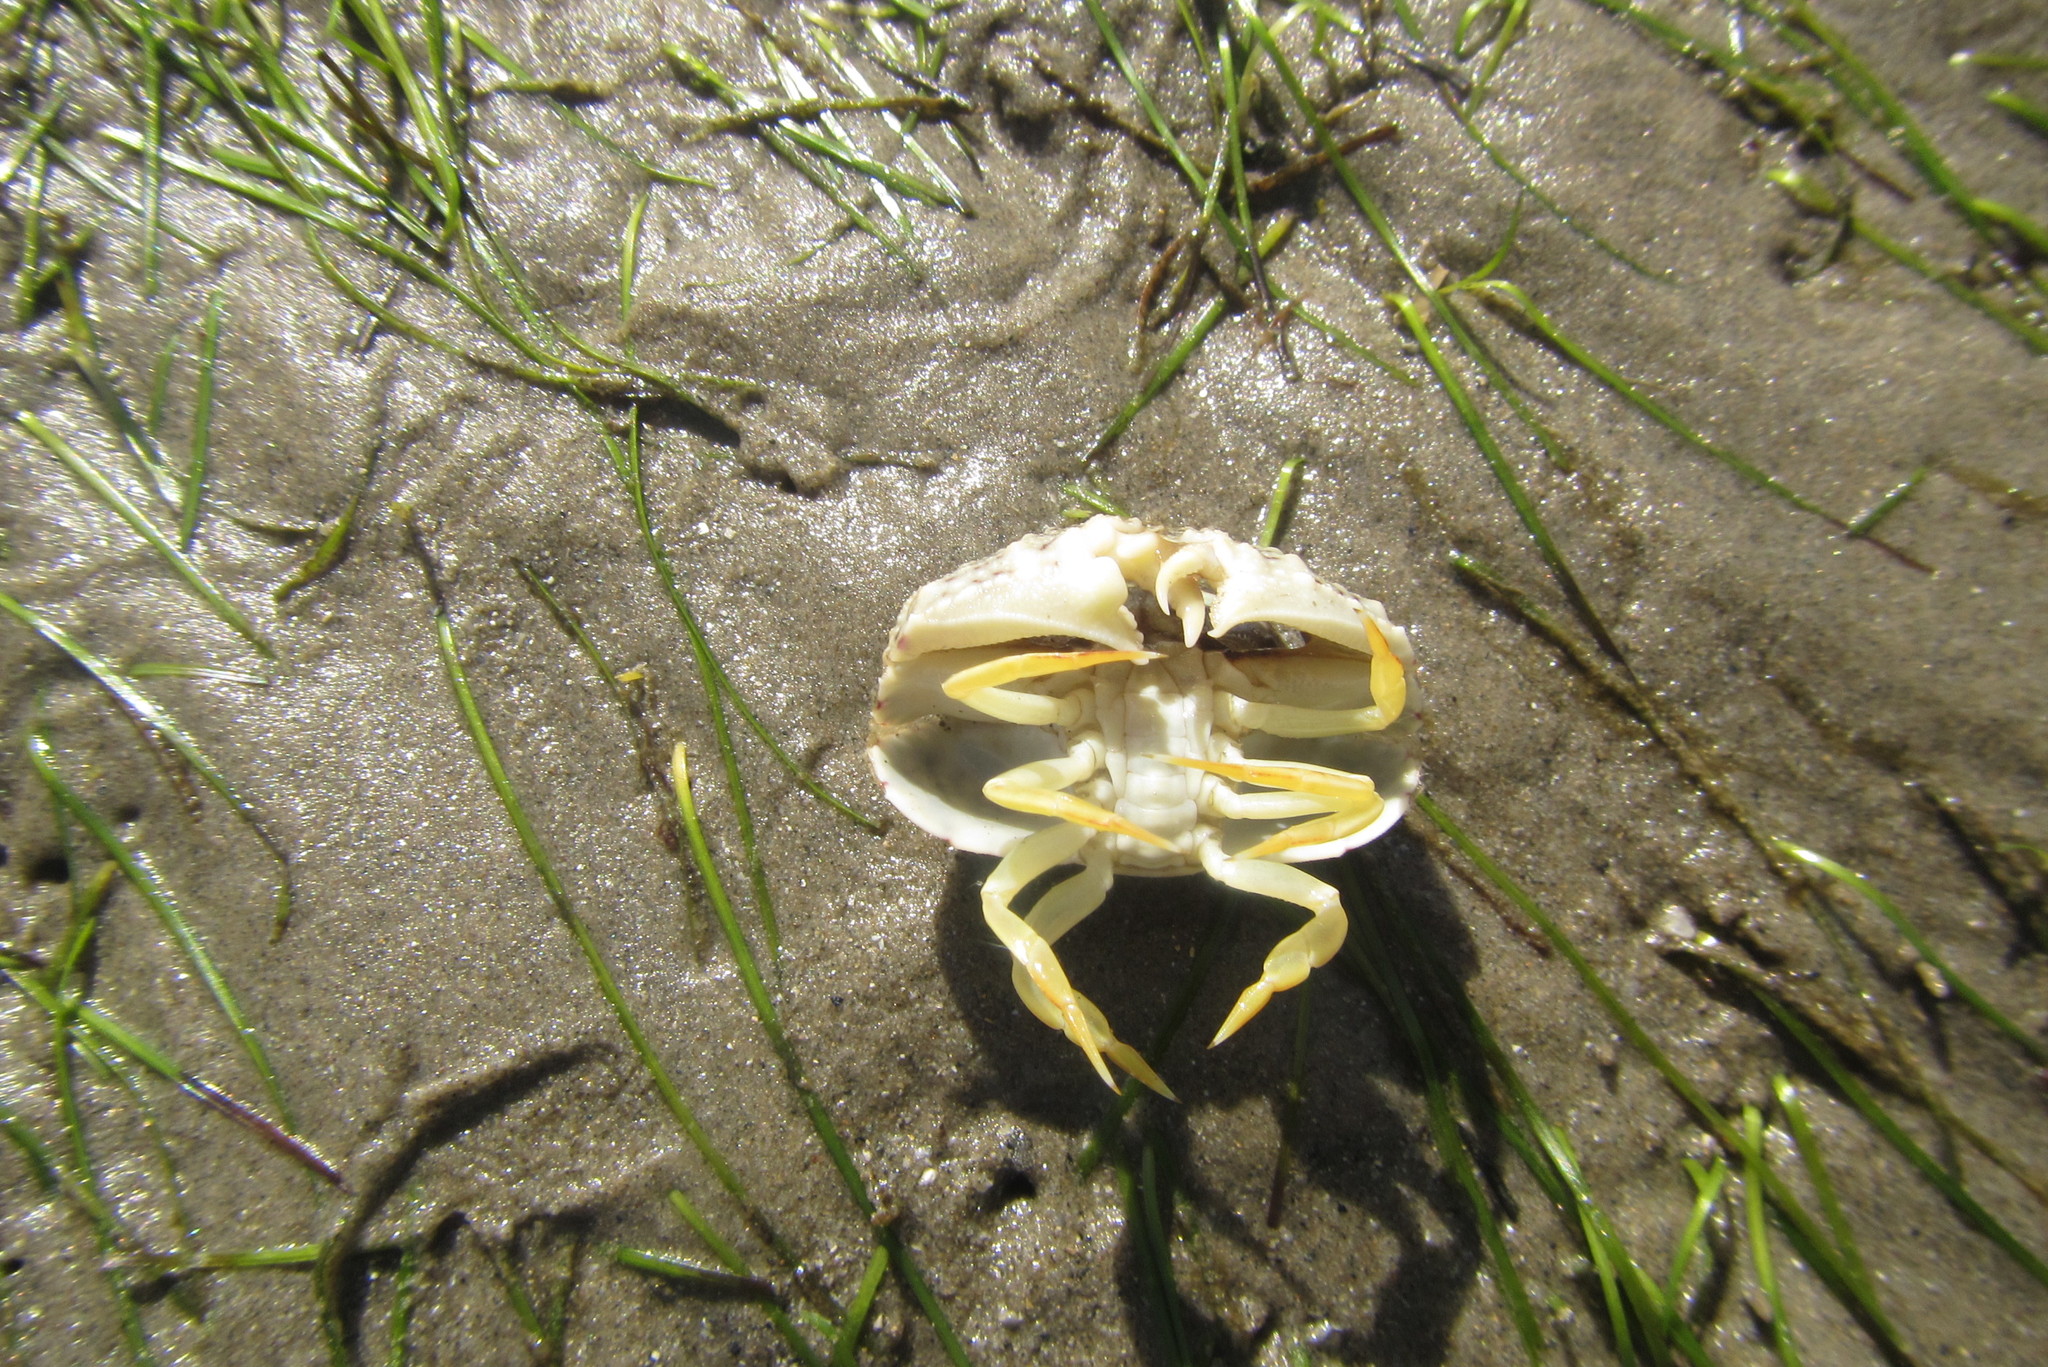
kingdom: Animalia
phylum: Arthropoda
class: Malacostraca
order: Decapoda
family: Calappidae
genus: Calappa
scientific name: Calappa hepatica
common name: Smooth box crab
